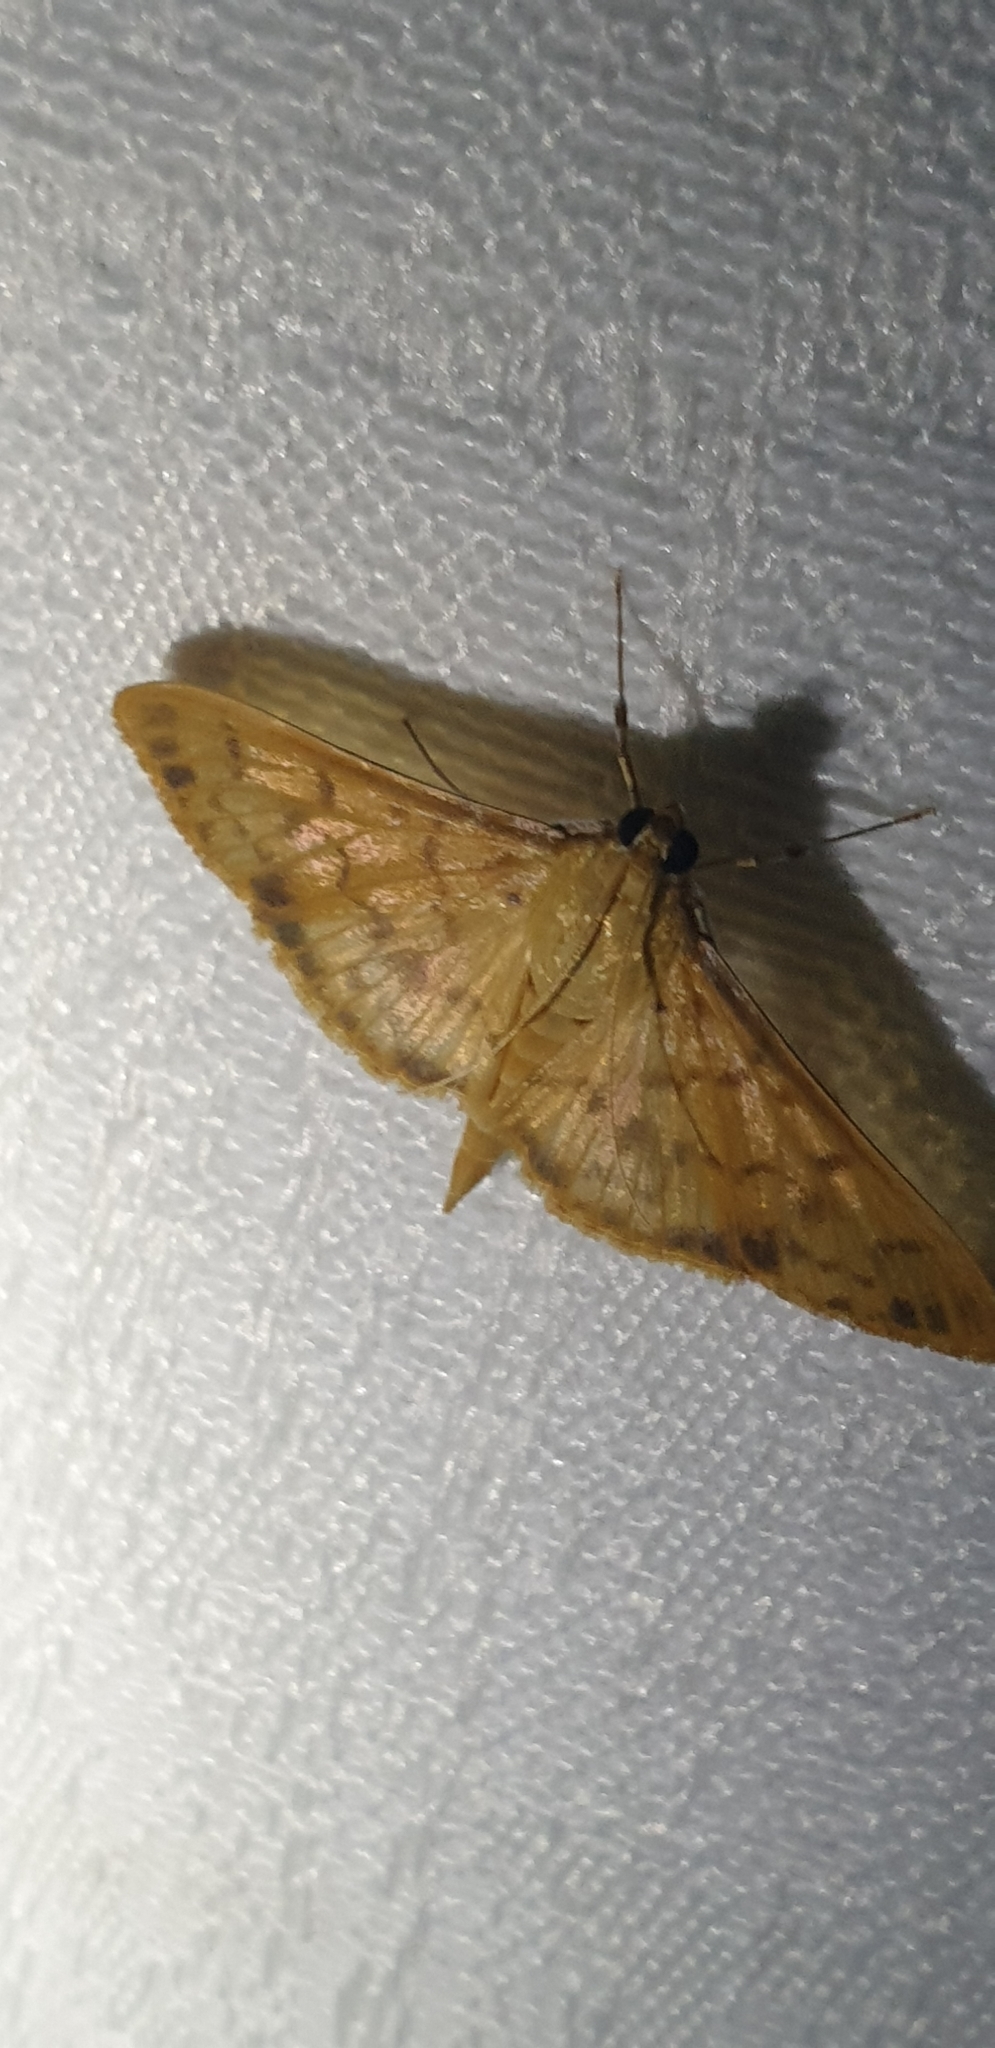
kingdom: Animalia
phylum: Arthropoda
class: Insecta
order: Lepidoptera
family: Crambidae
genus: Pleuroptya
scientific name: Pleuroptya balteata
